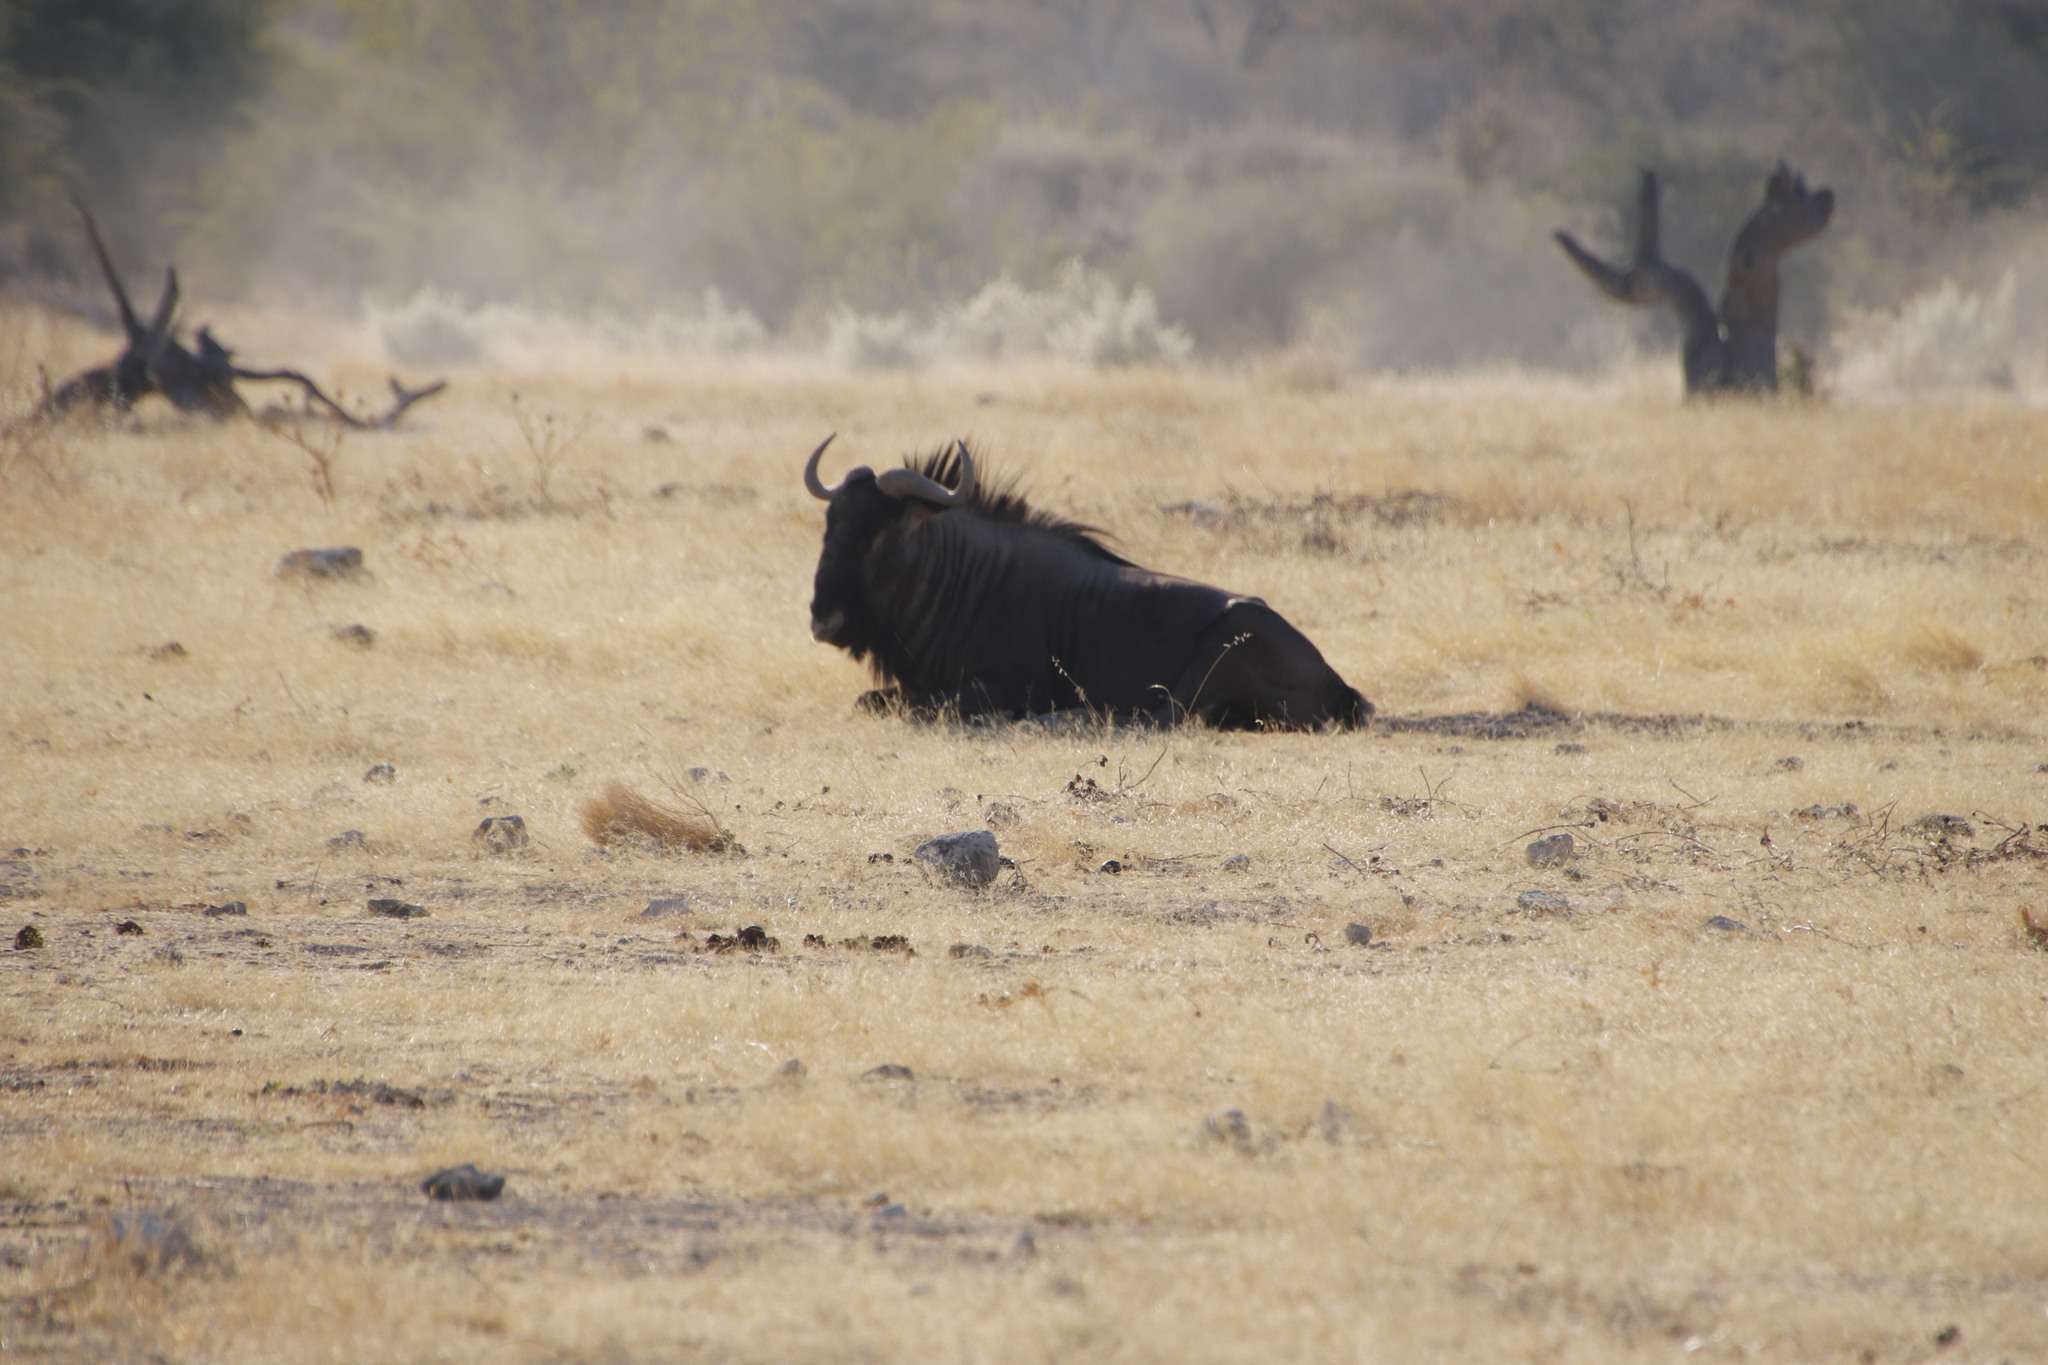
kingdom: Animalia
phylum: Chordata
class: Mammalia
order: Artiodactyla
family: Bovidae
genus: Connochaetes
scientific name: Connochaetes taurinus
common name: Blue wildebeest
